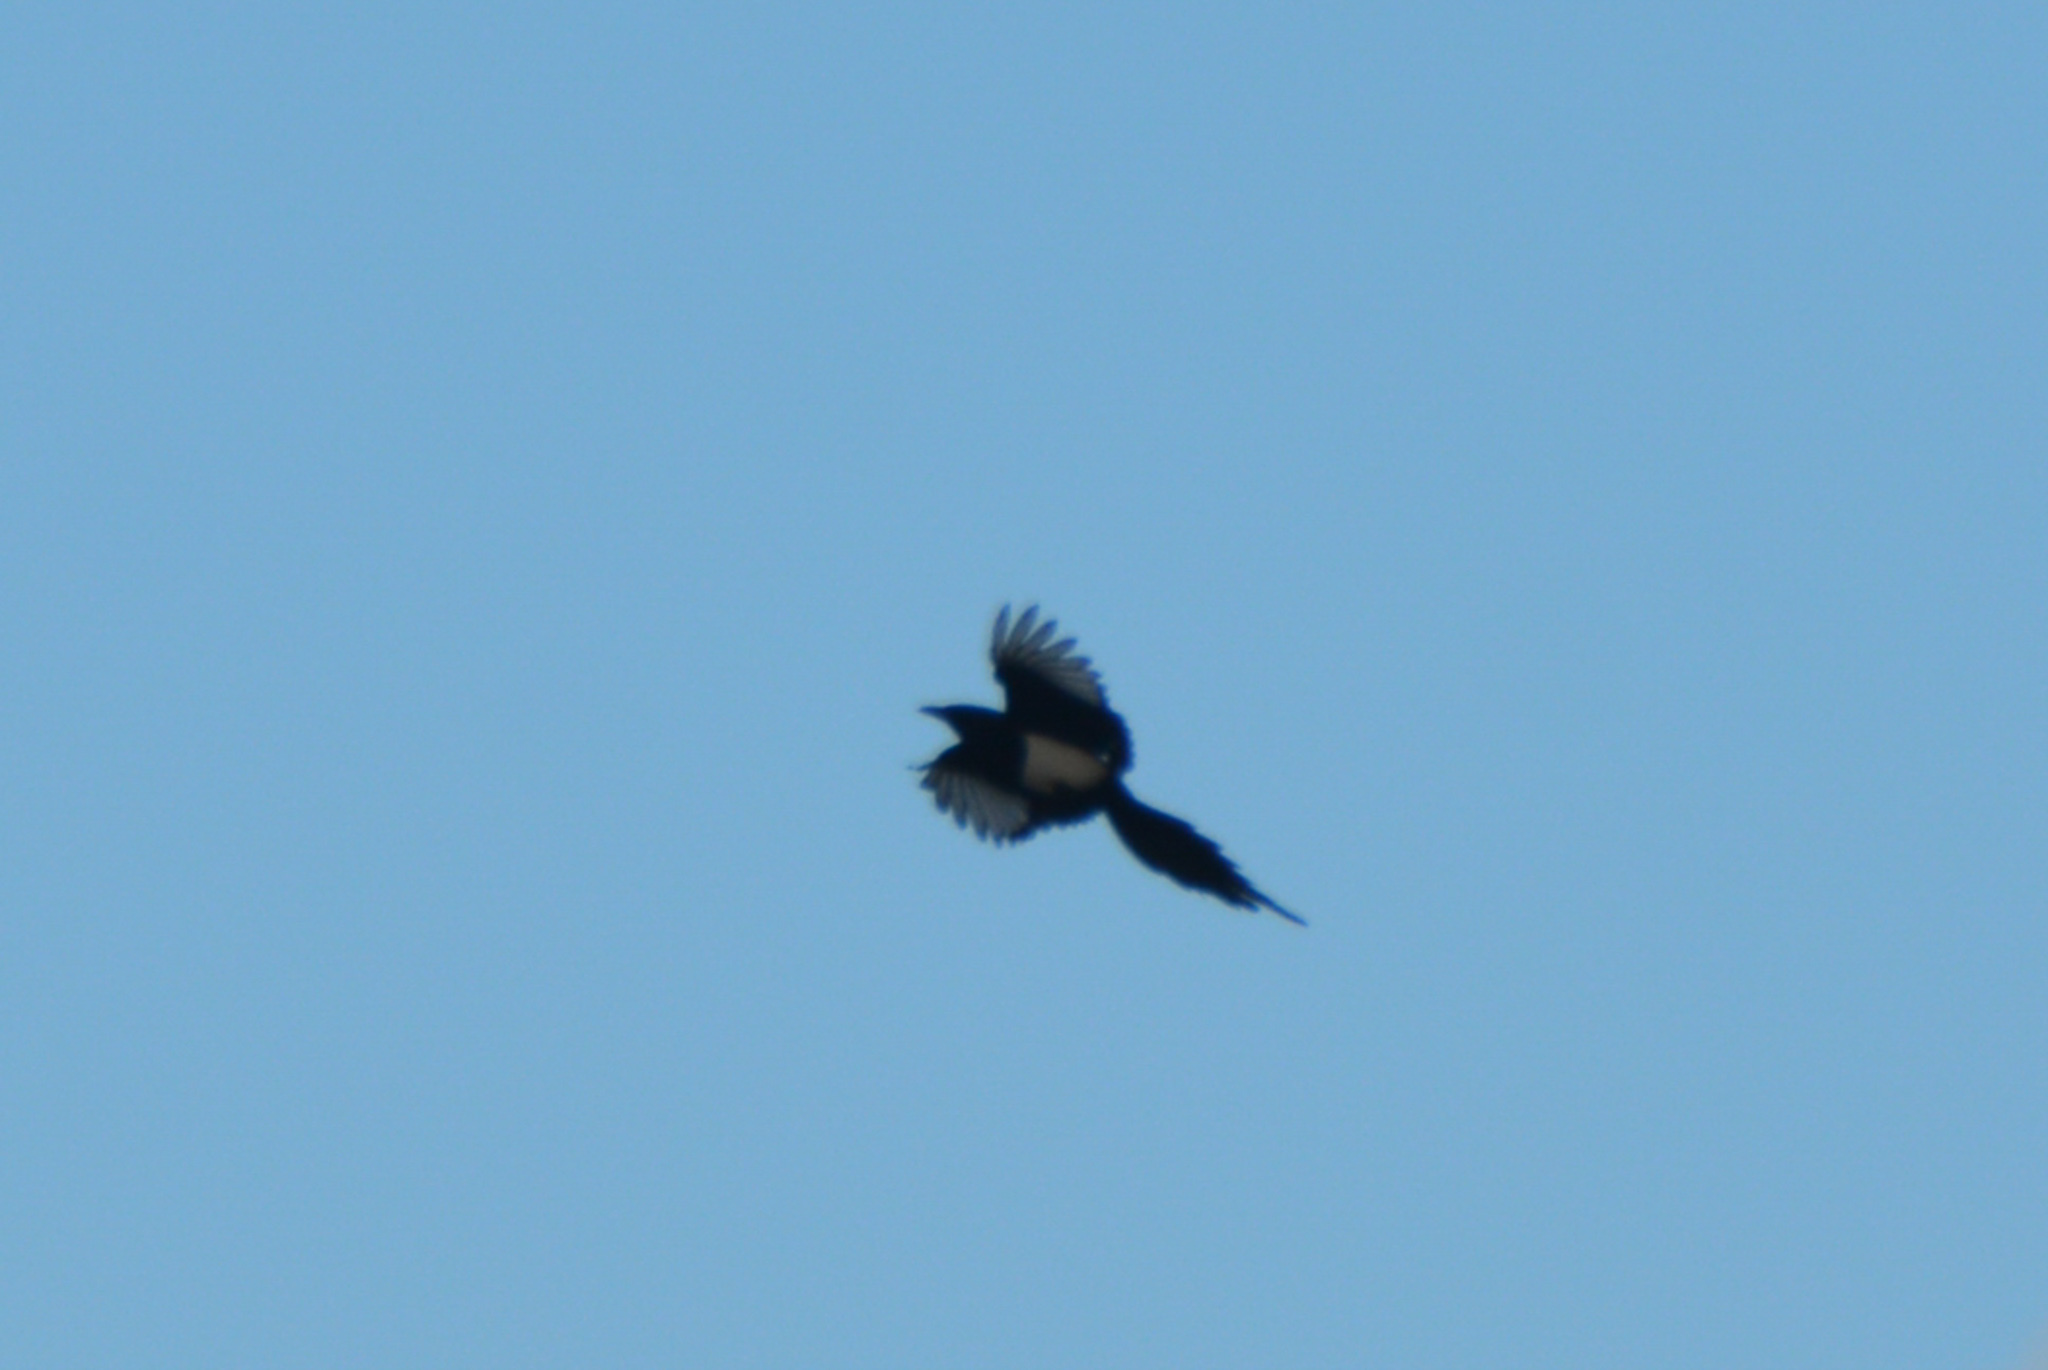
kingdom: Animalia
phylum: Chordata
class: Aves
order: Passeriformes
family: Corvidae
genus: Pica
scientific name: Pica hudsonia
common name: Black-billed magpie
